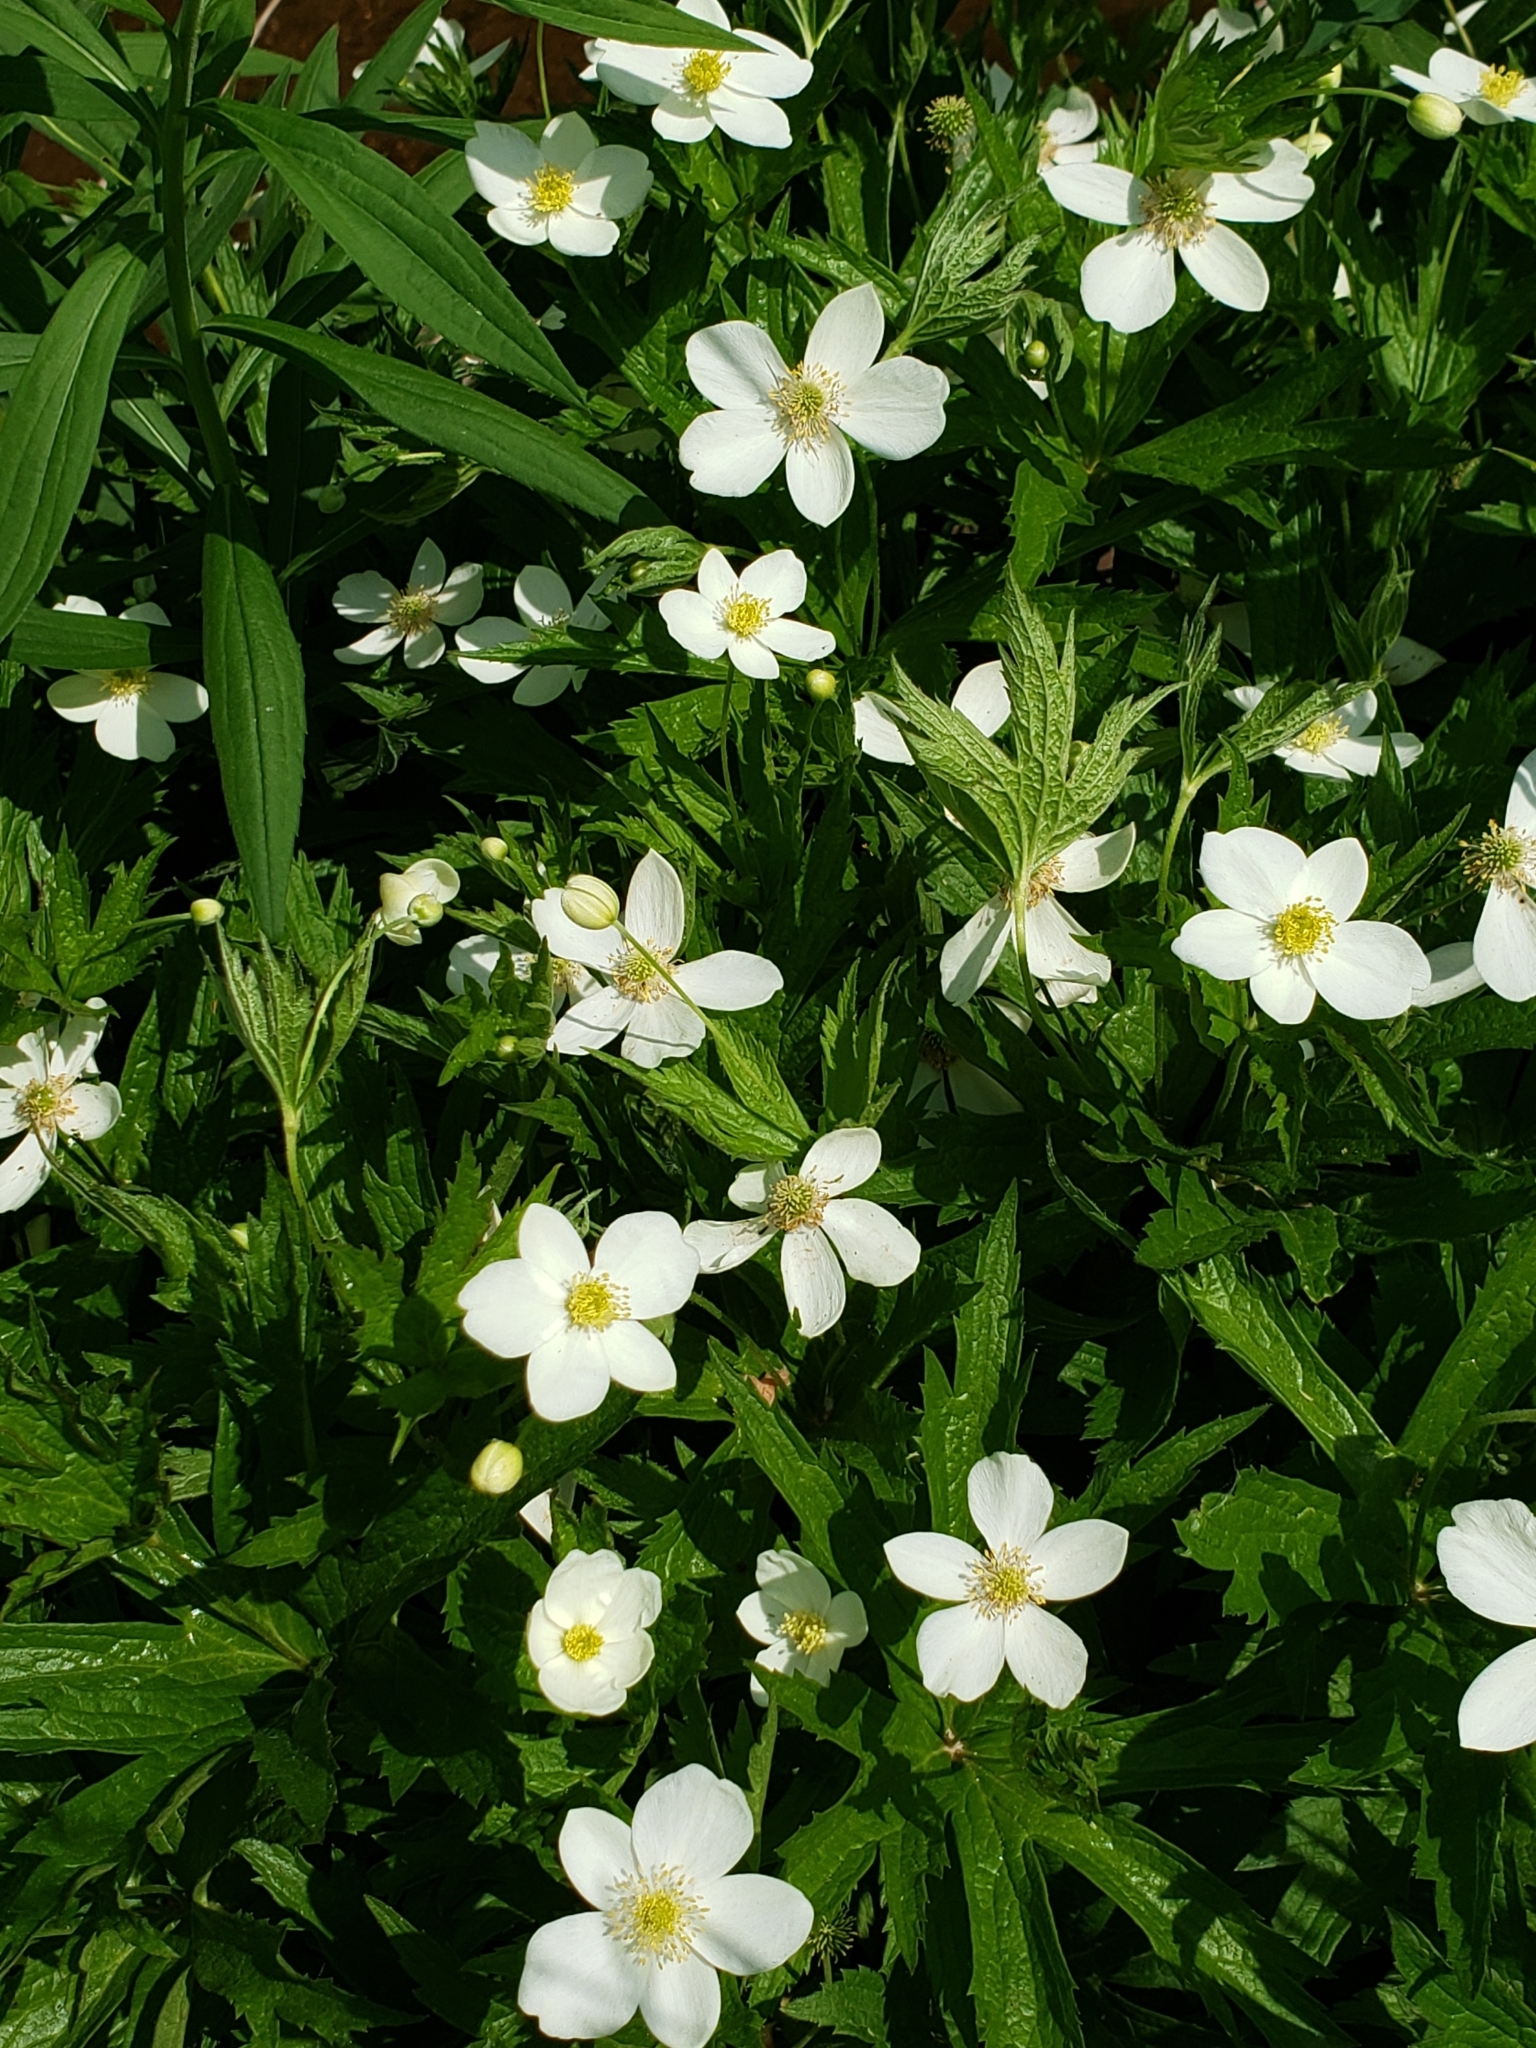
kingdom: Plantae
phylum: Tracheophyta
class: Magnoliopsida
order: Ranunculales
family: Ranunculaceae
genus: Anemonastrum
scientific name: Anemonastrum canadense
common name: Canada anemone
